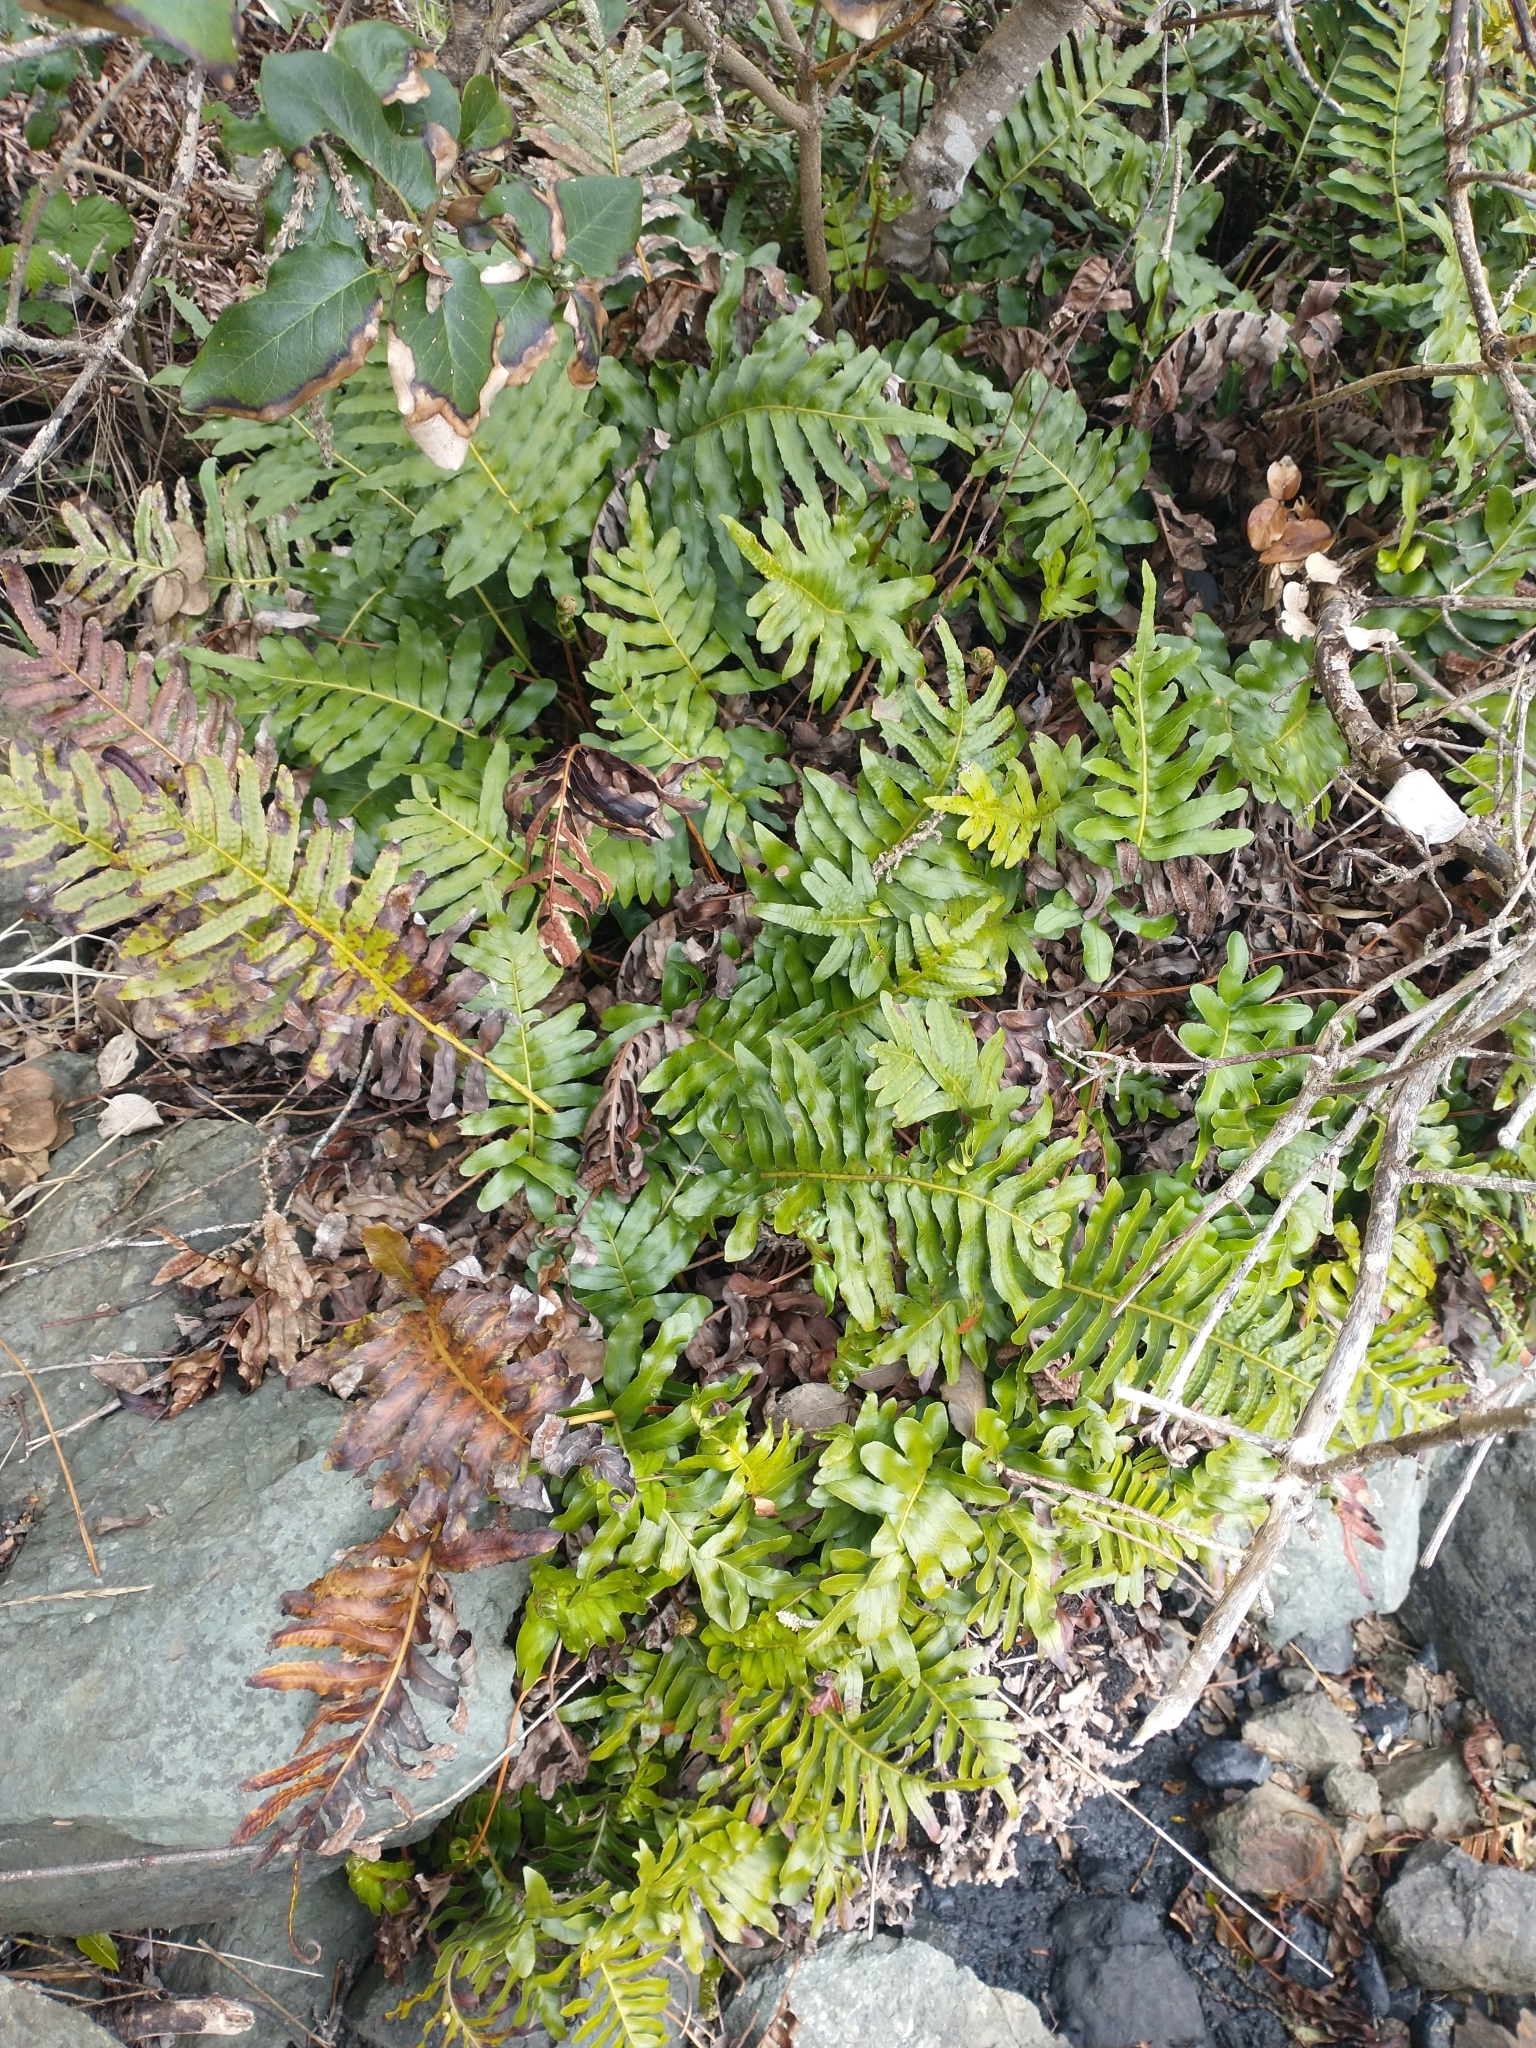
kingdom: Plantae
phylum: Tracheophyta
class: Polypodiopsida
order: Polypodiales
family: Polypodiaceae
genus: Polypodium
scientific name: Polypodium scouleri
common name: Scouler's polypody
